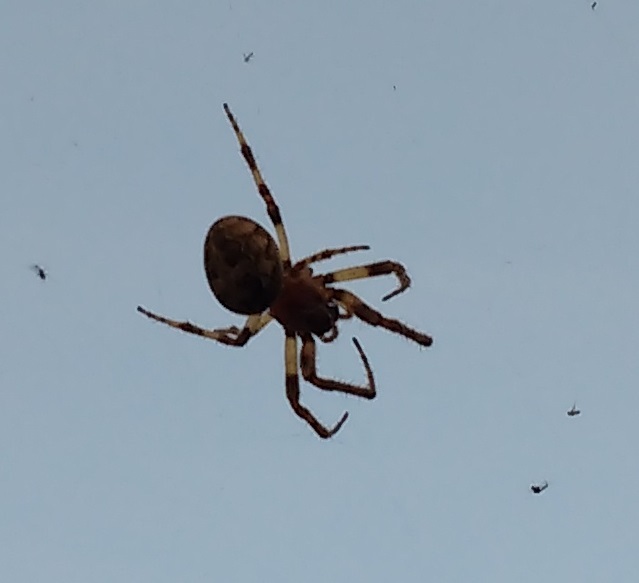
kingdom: Animalia
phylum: Arthropoda
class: Arachnida
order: Araneae
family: Araneidae
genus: Larinioides
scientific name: Larinioides sclopetarius
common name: Bridge orbweaver
